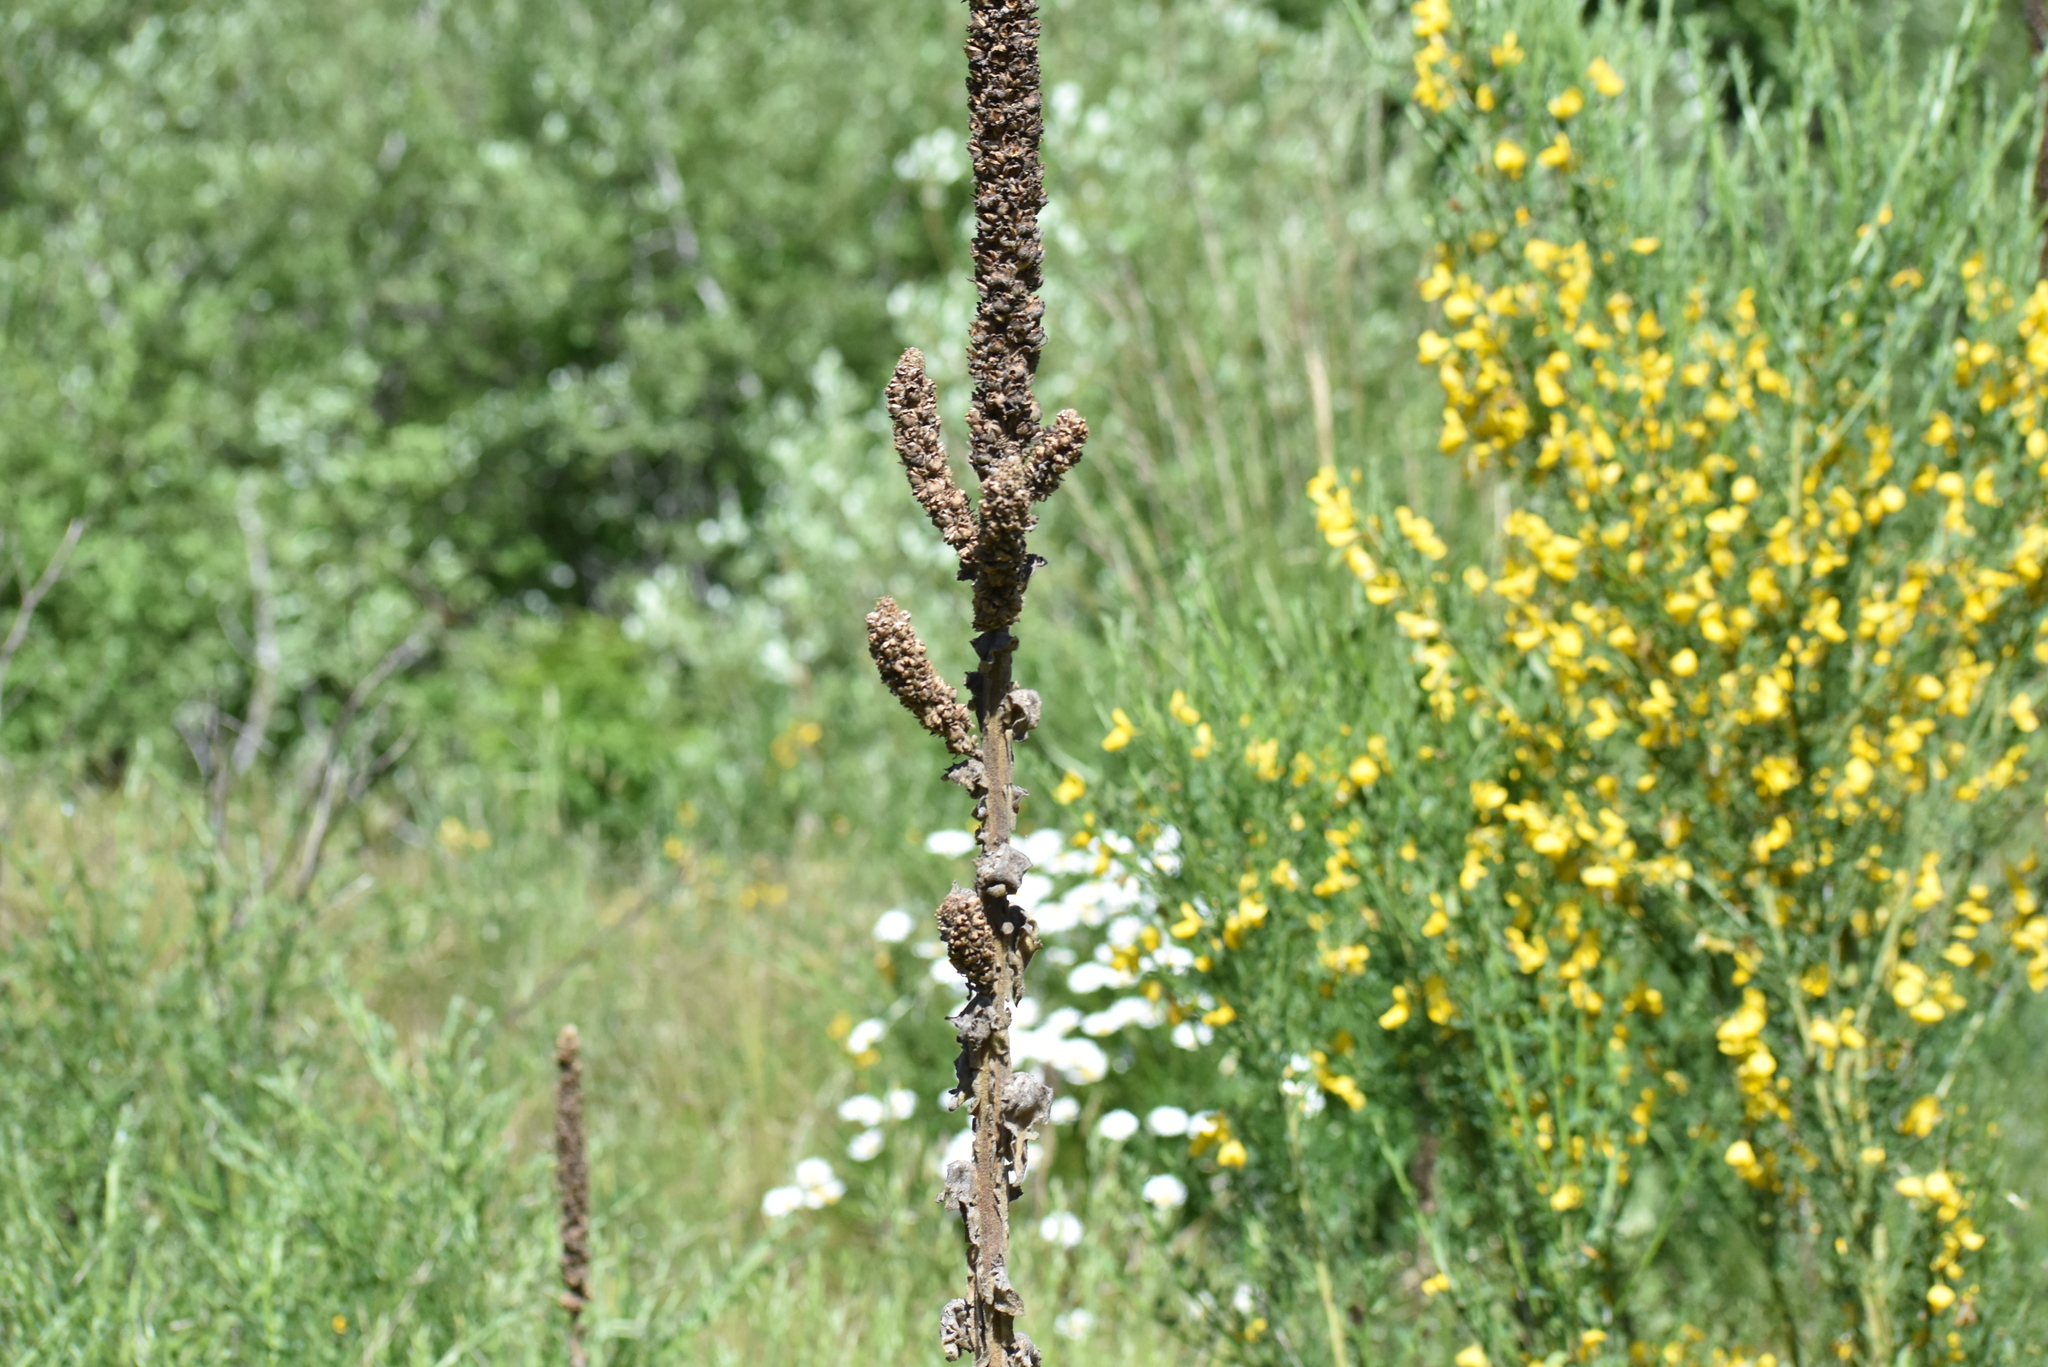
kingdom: Plantae
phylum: Tracheophyta
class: Magnoliopsida
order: Lamiales
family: Scrophulariaceae
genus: Verbascum
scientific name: Verbascum thapsus
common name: Common mullein
